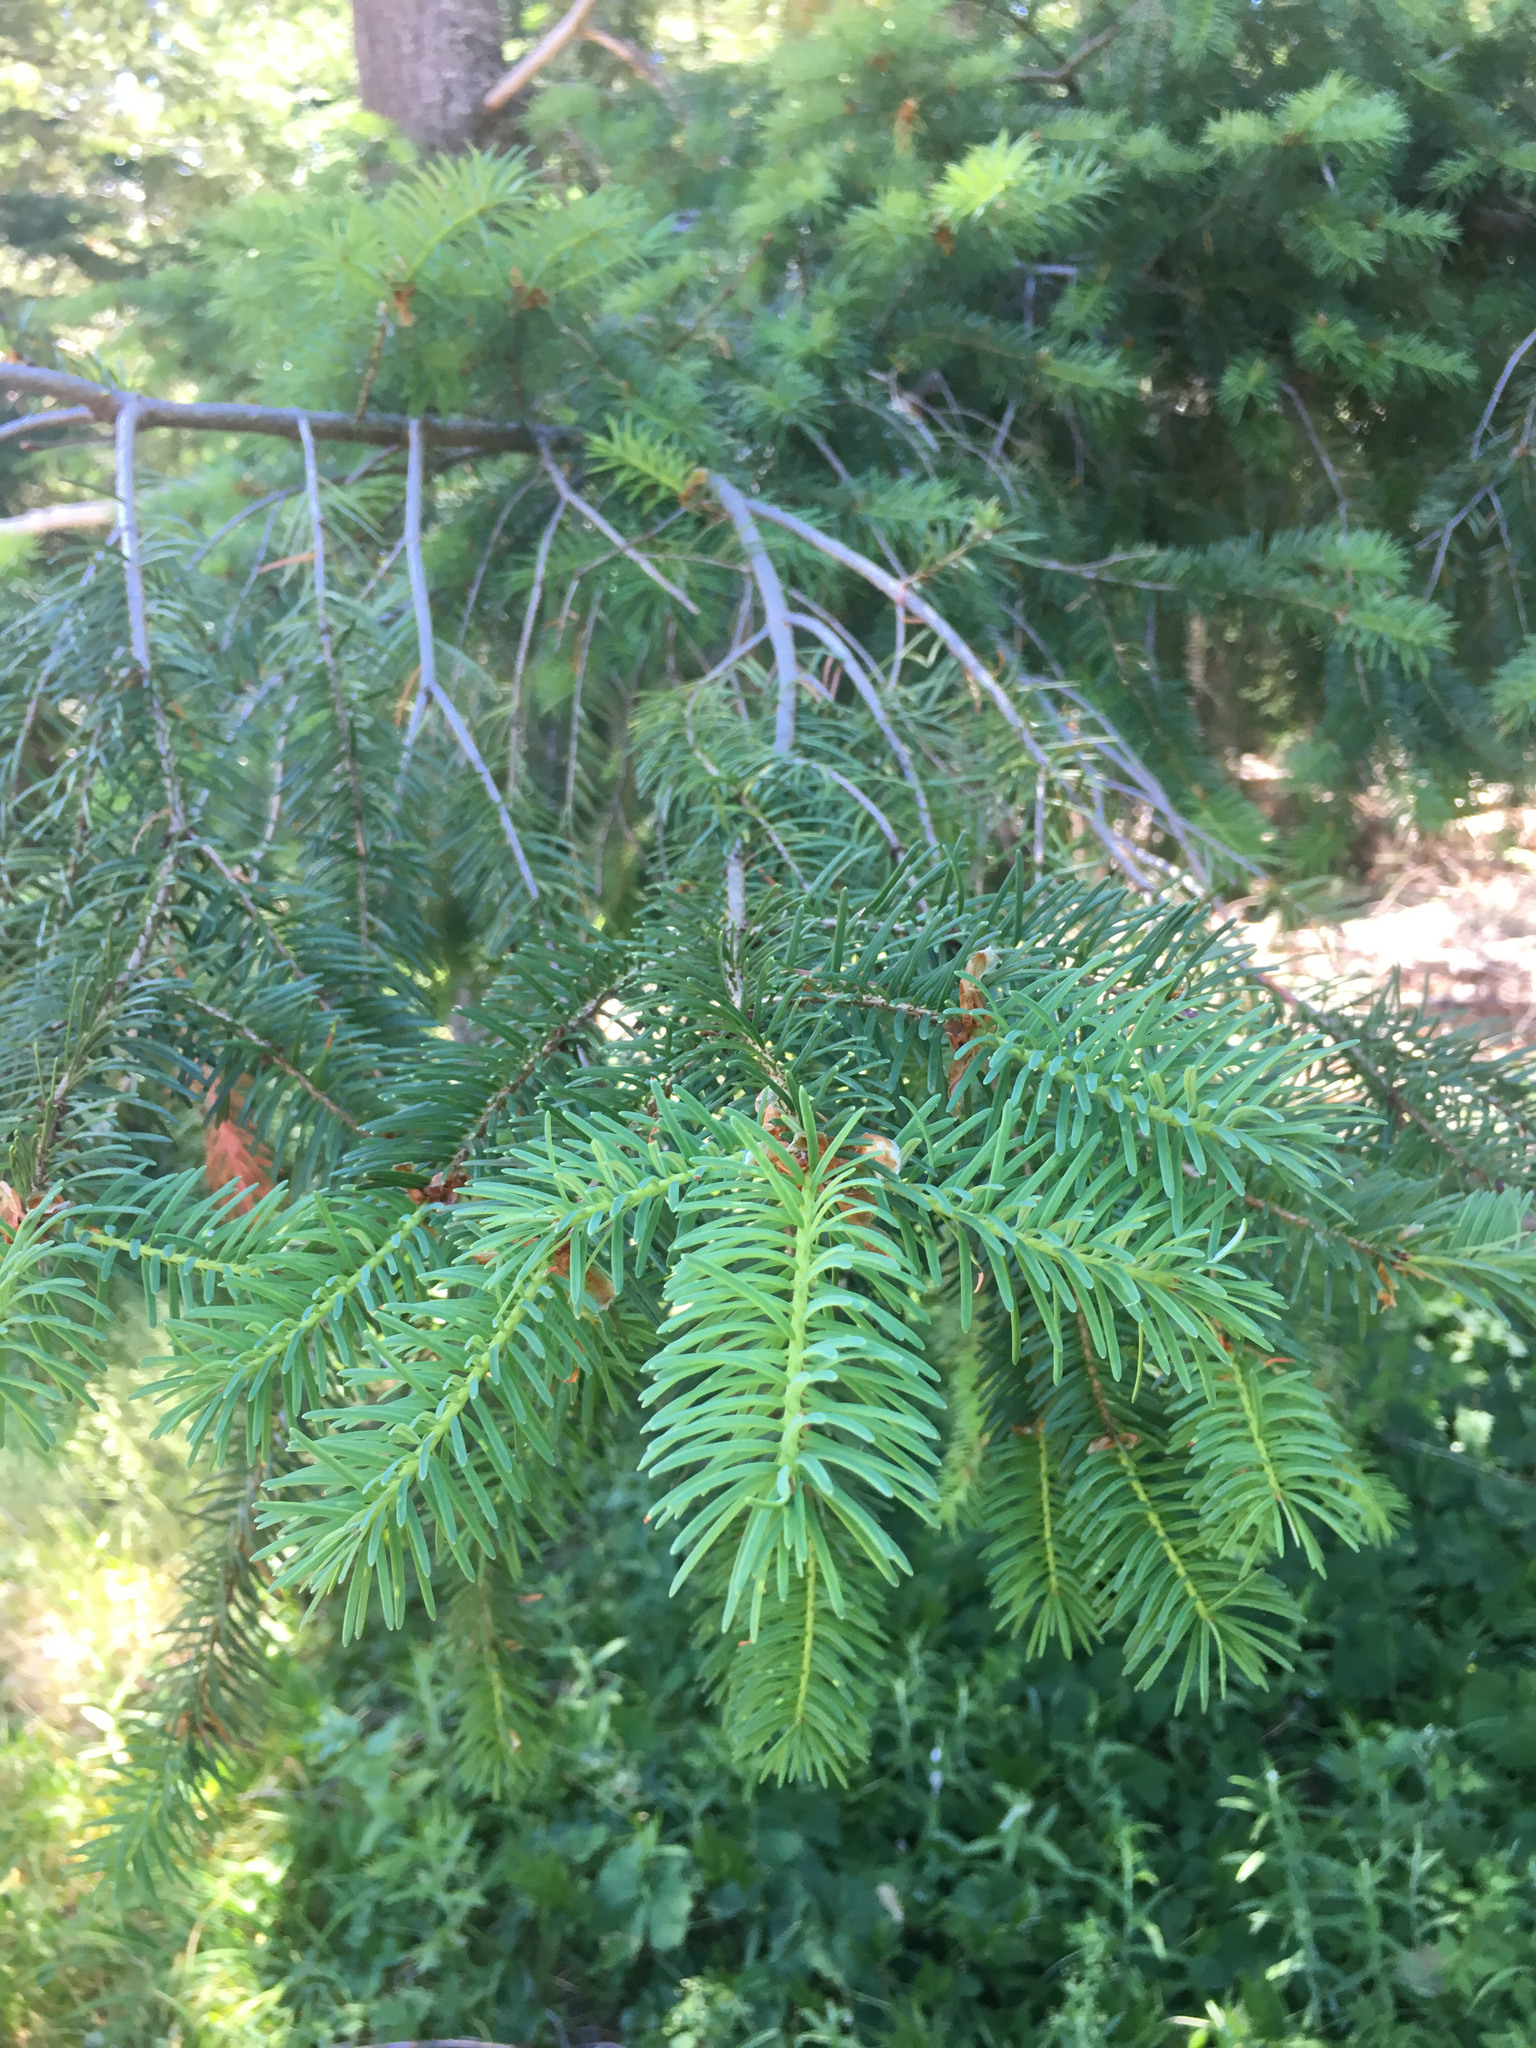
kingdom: Plantae
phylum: Tracheophyta
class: Pinopsida
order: Pinales
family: Pinaceae
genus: Pseudotsuga
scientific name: Pseudotsuga menziesii
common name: Douglas fir
